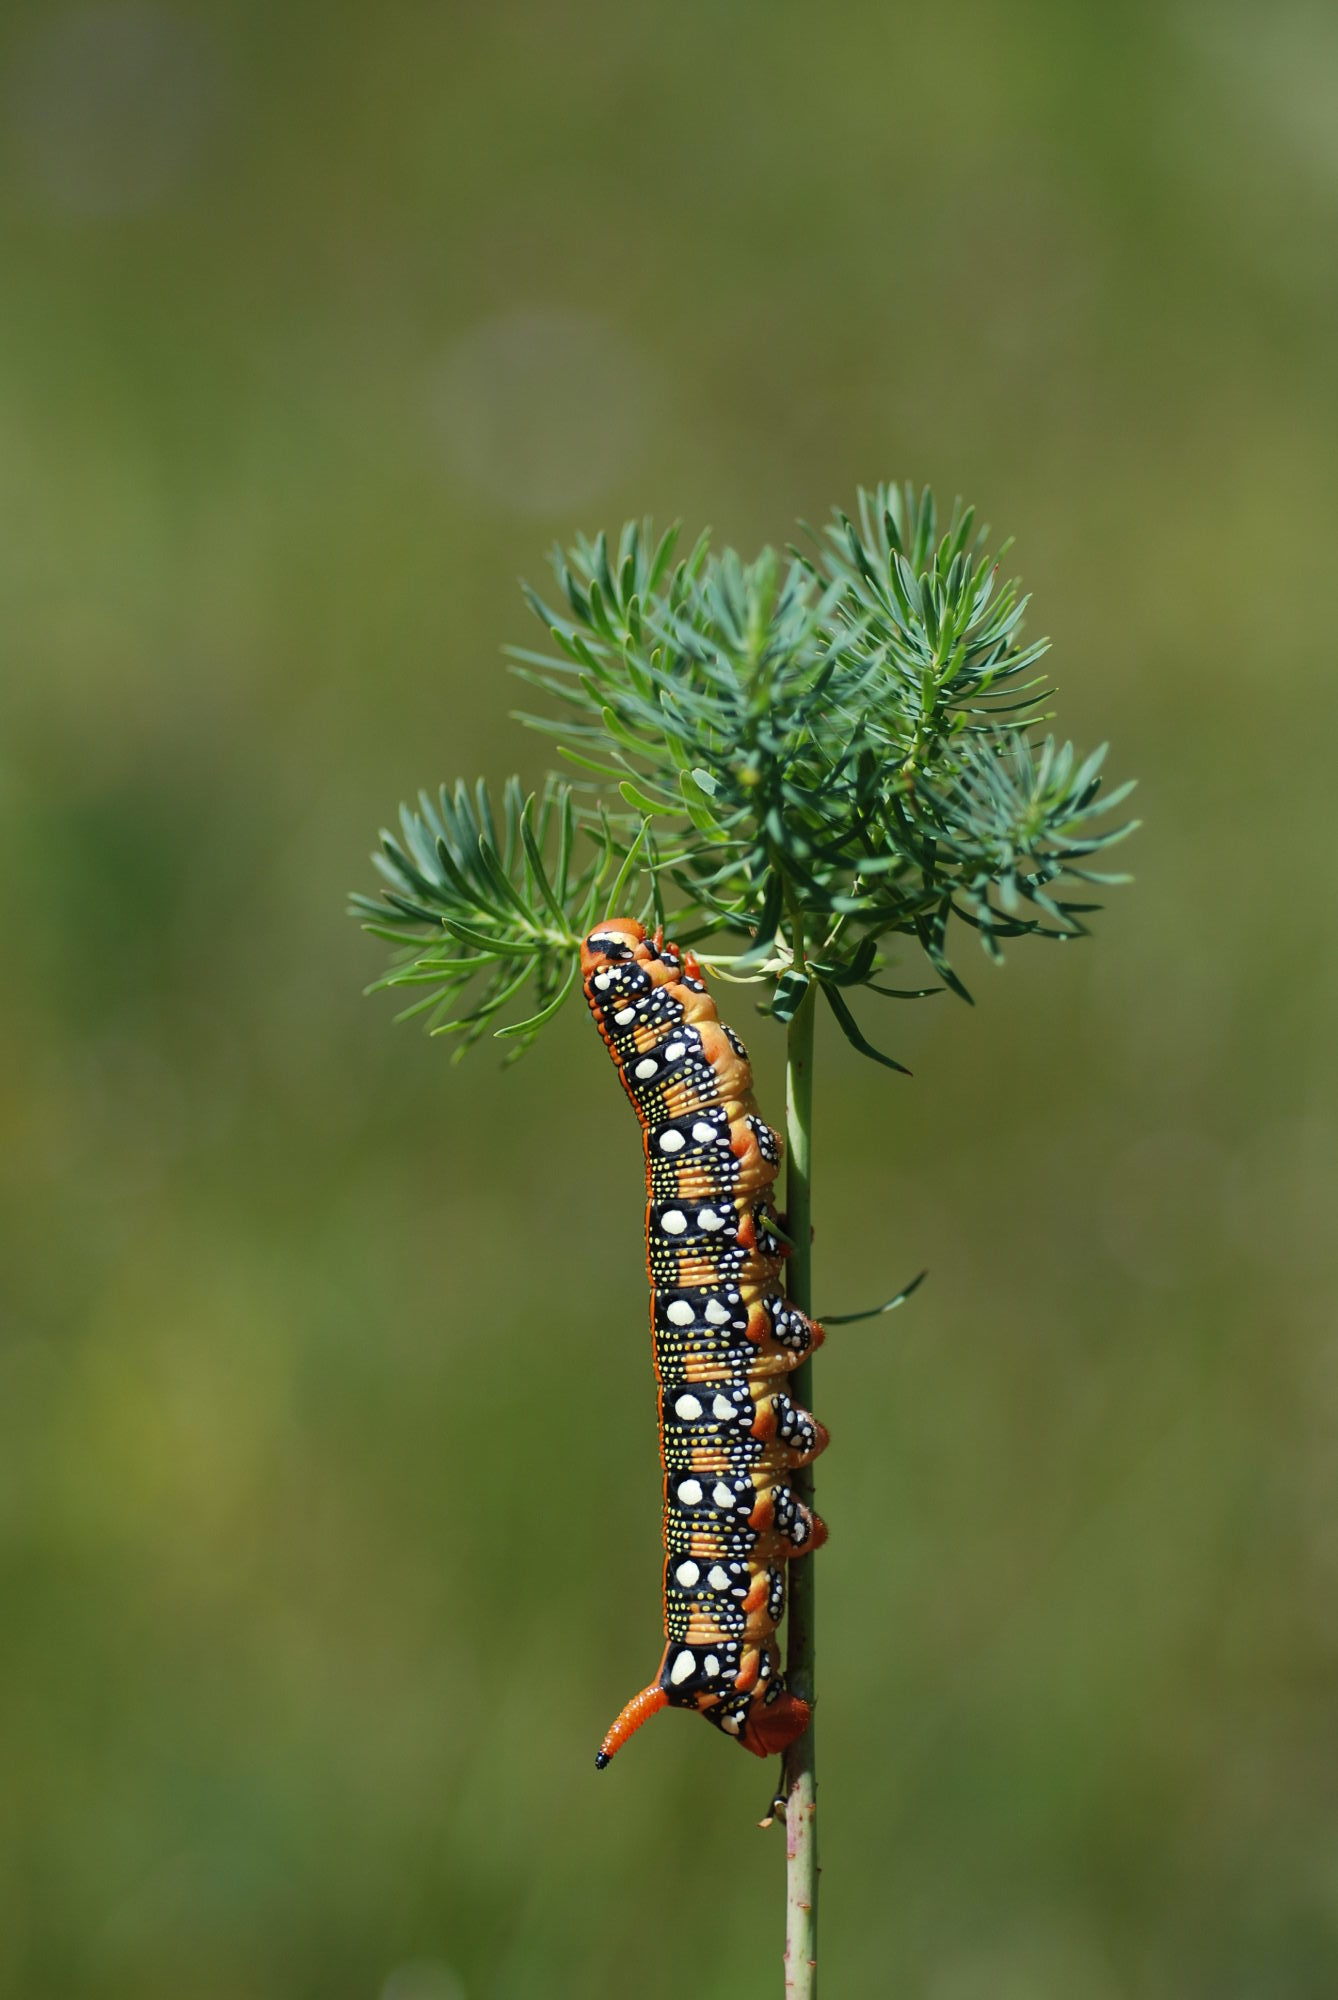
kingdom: Animalia
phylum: Arthropoda
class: Insecta
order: Lepidoptera
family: Sphingidae
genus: Hyles
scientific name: Hyles euphorbiae
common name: Spurge hawk-moth
